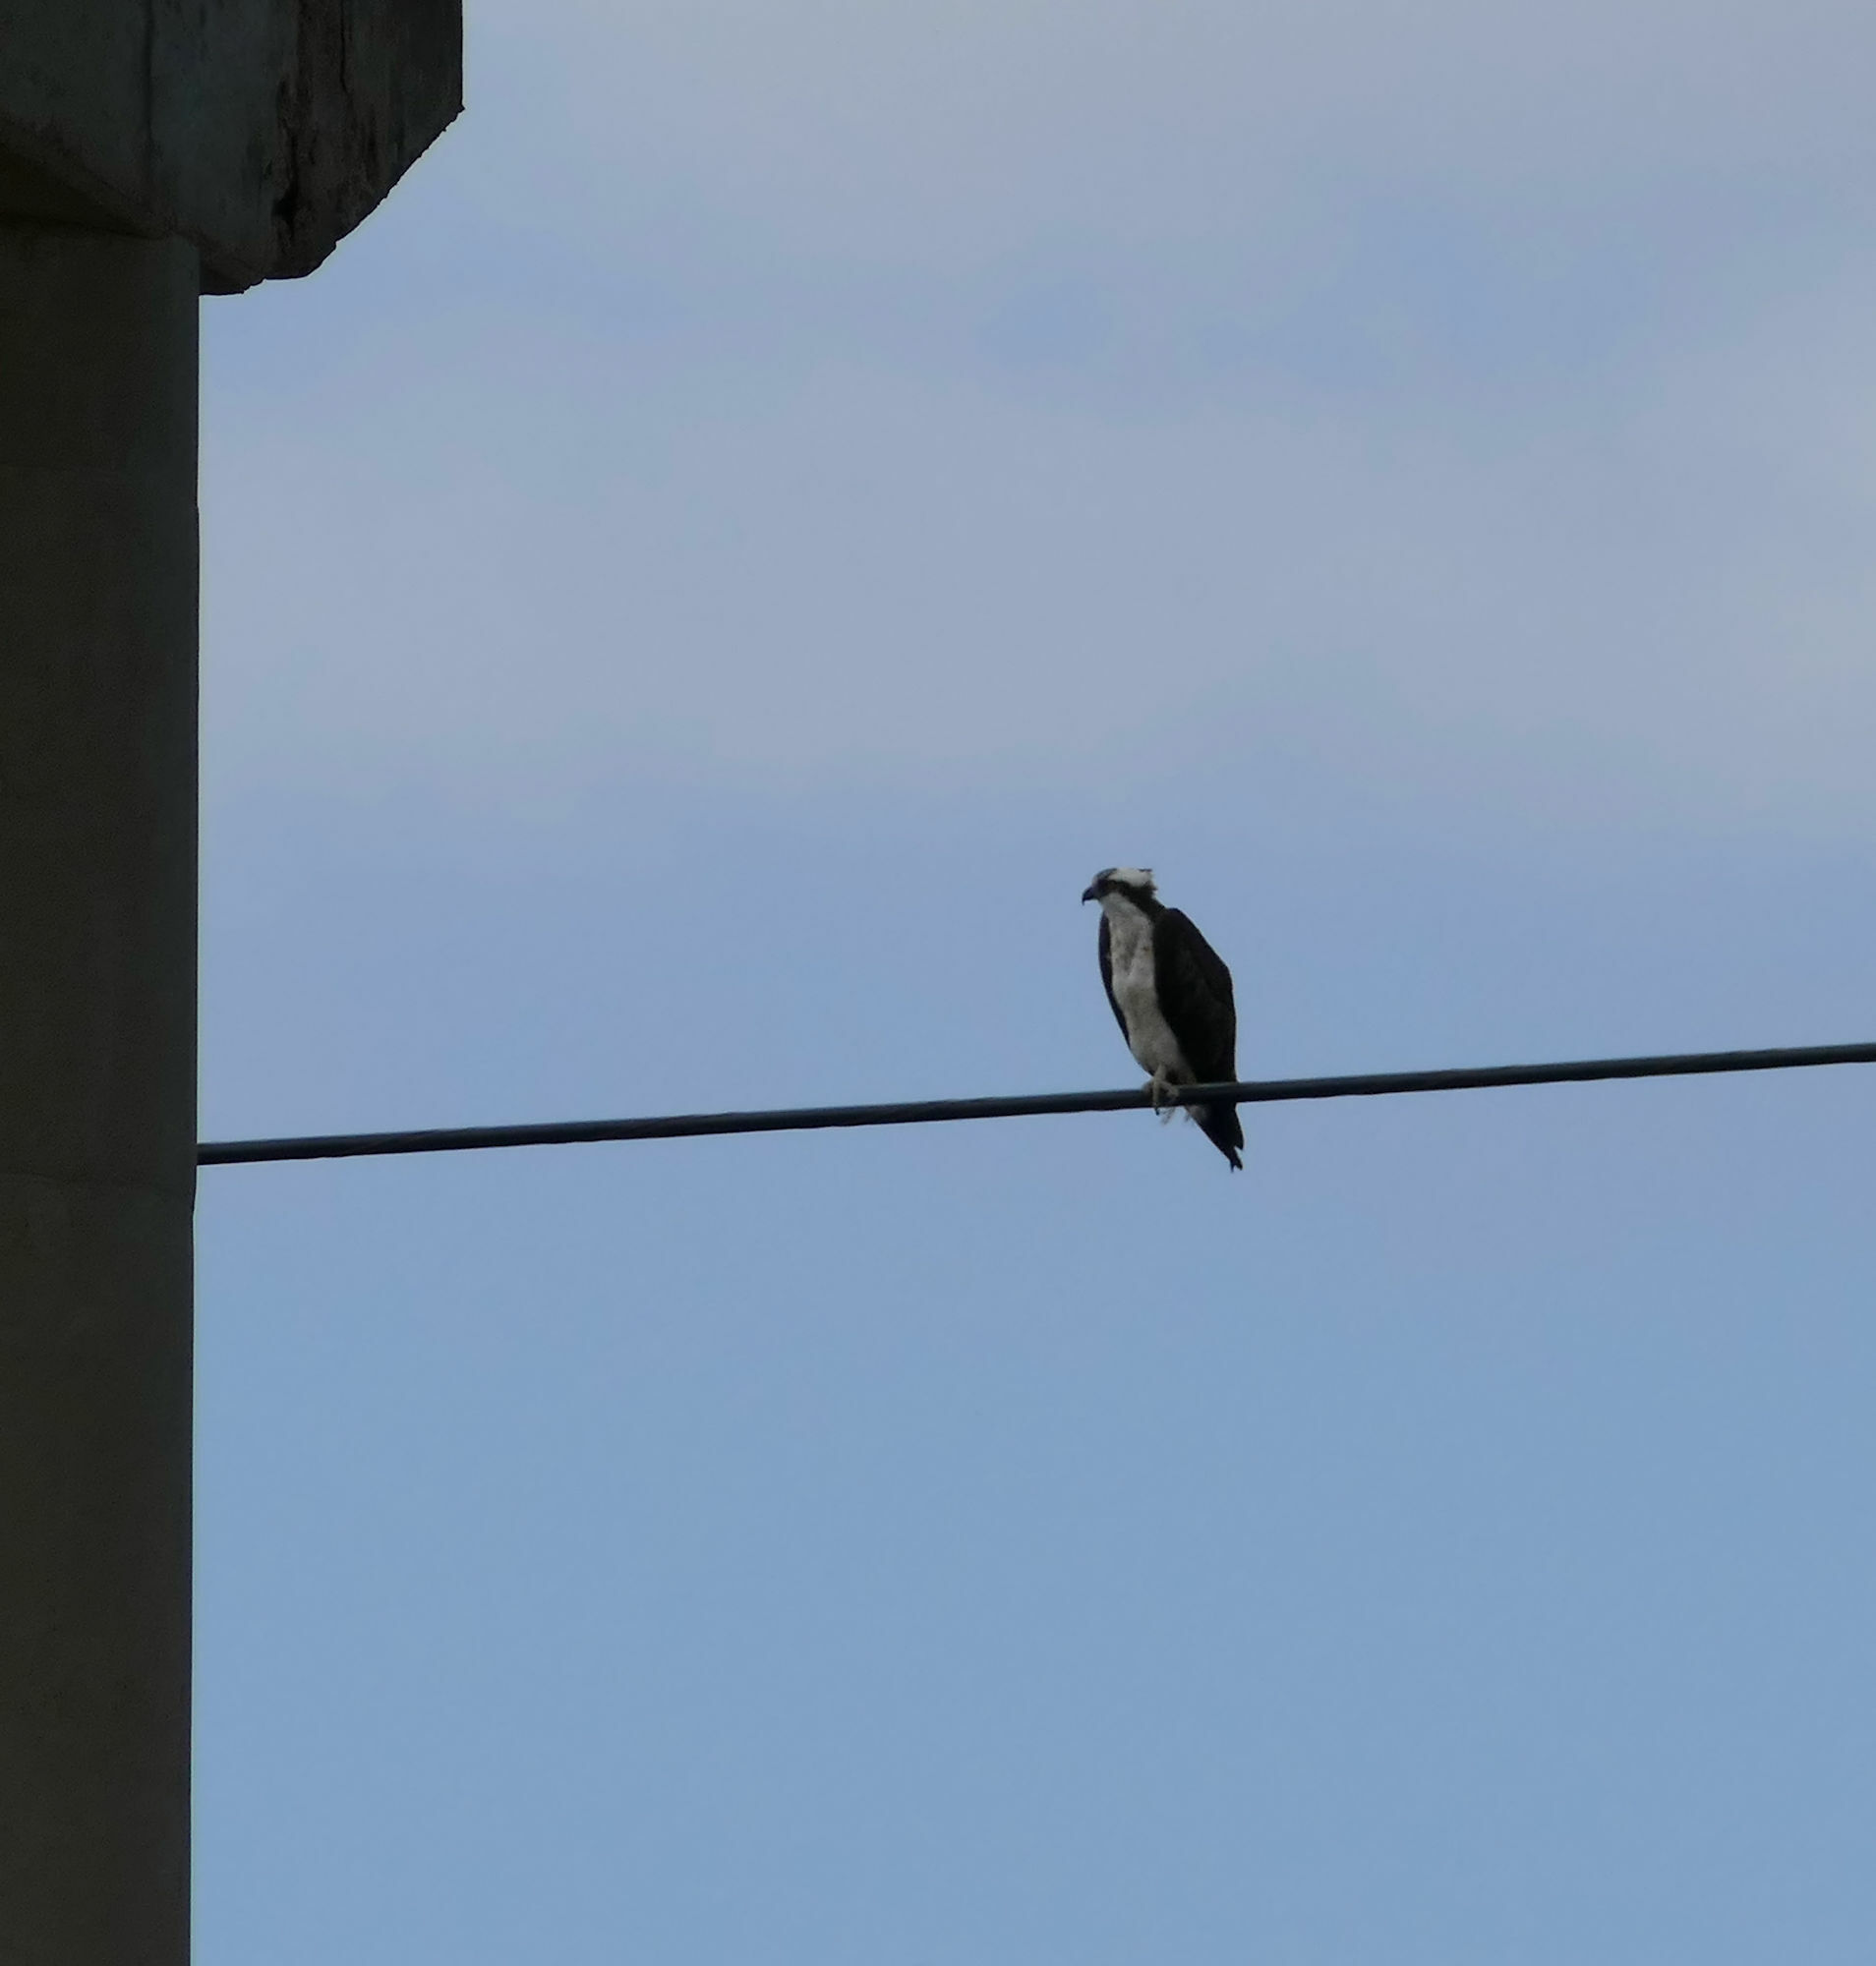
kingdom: Animalia
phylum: Chordata
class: Aves
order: Accipitriformes
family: Pandionidae
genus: Pandion
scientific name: Pandion haliaetus
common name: Osprey
